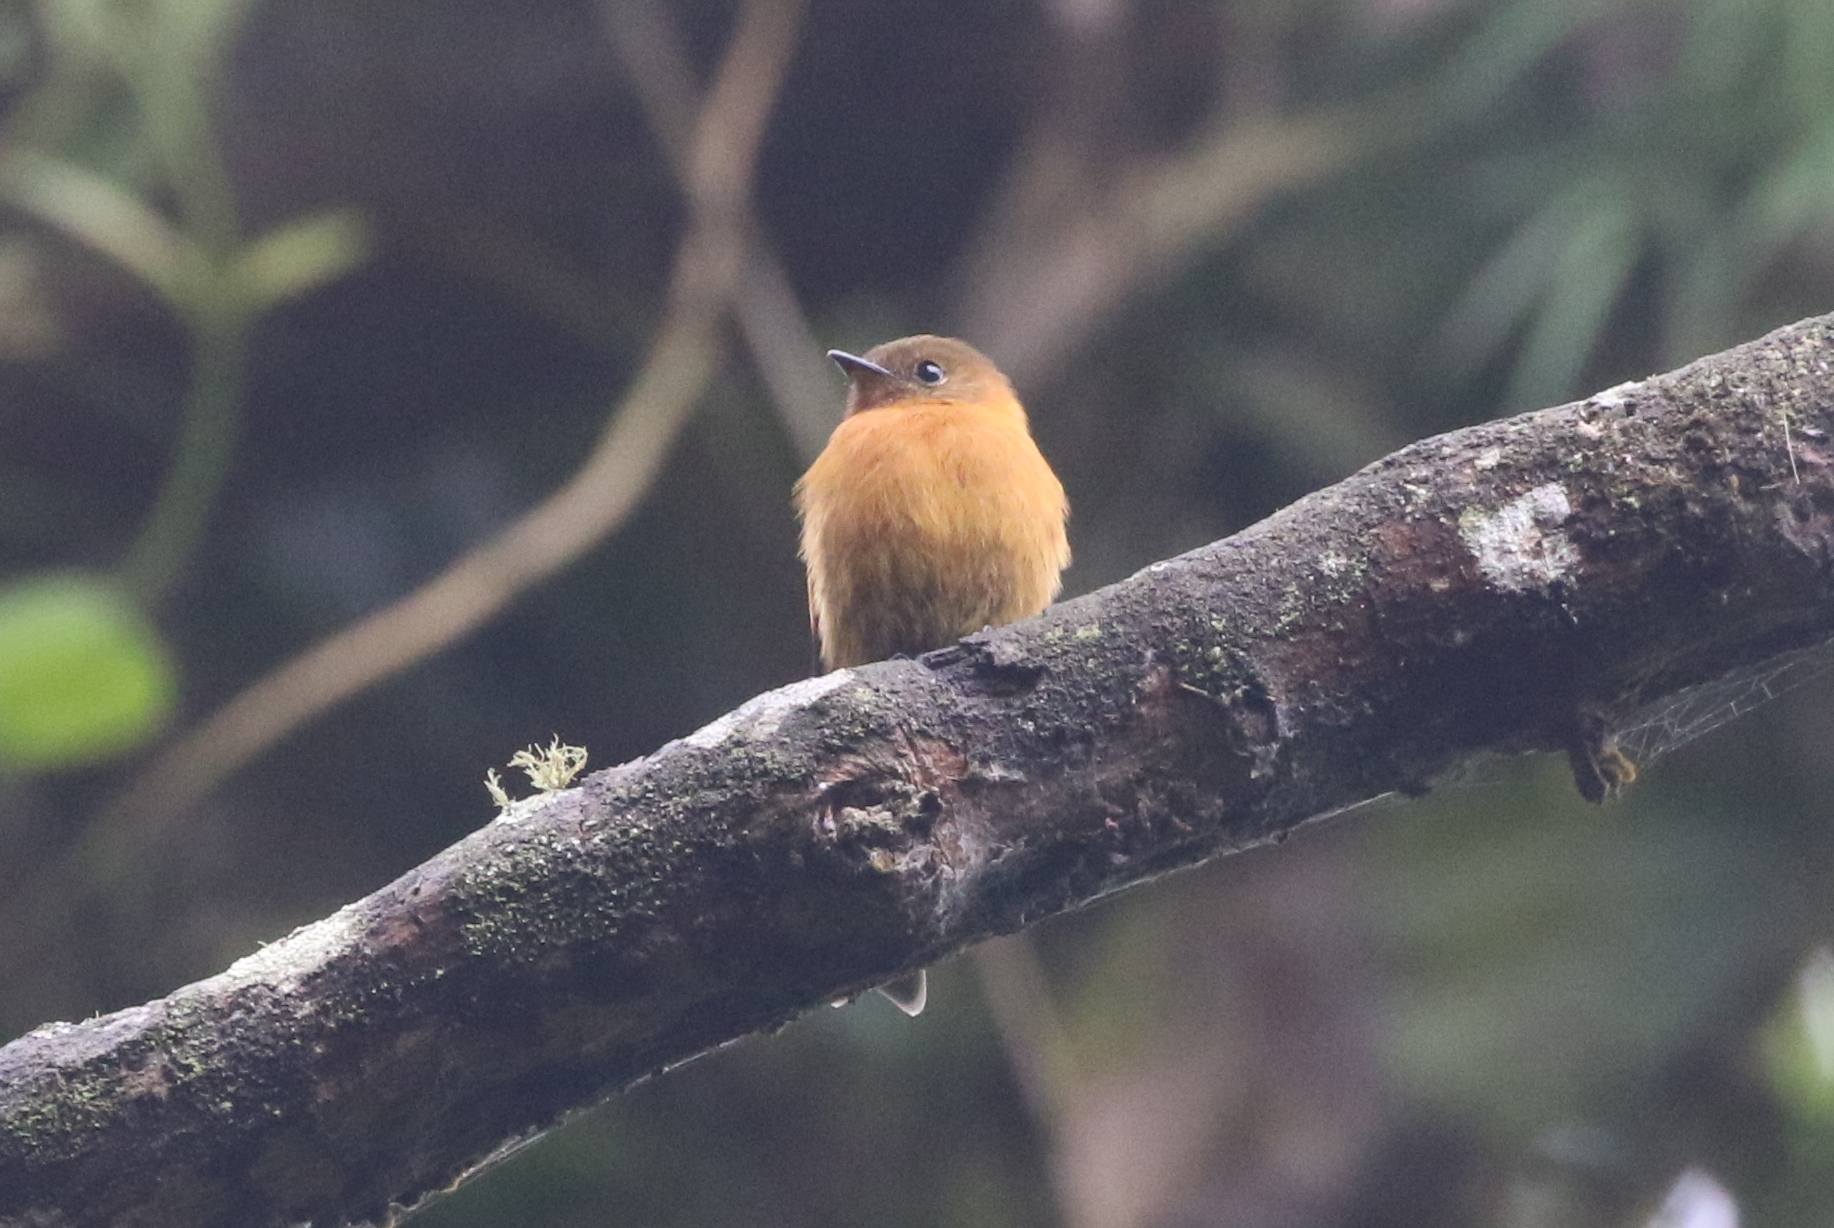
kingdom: Animalia
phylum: Chordata
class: Aves
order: Passeriformes
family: Tyrannidae
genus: Pyrrhomyias
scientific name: Pyrrhomyias cinnamomeus
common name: Cinnamon flycatcher
